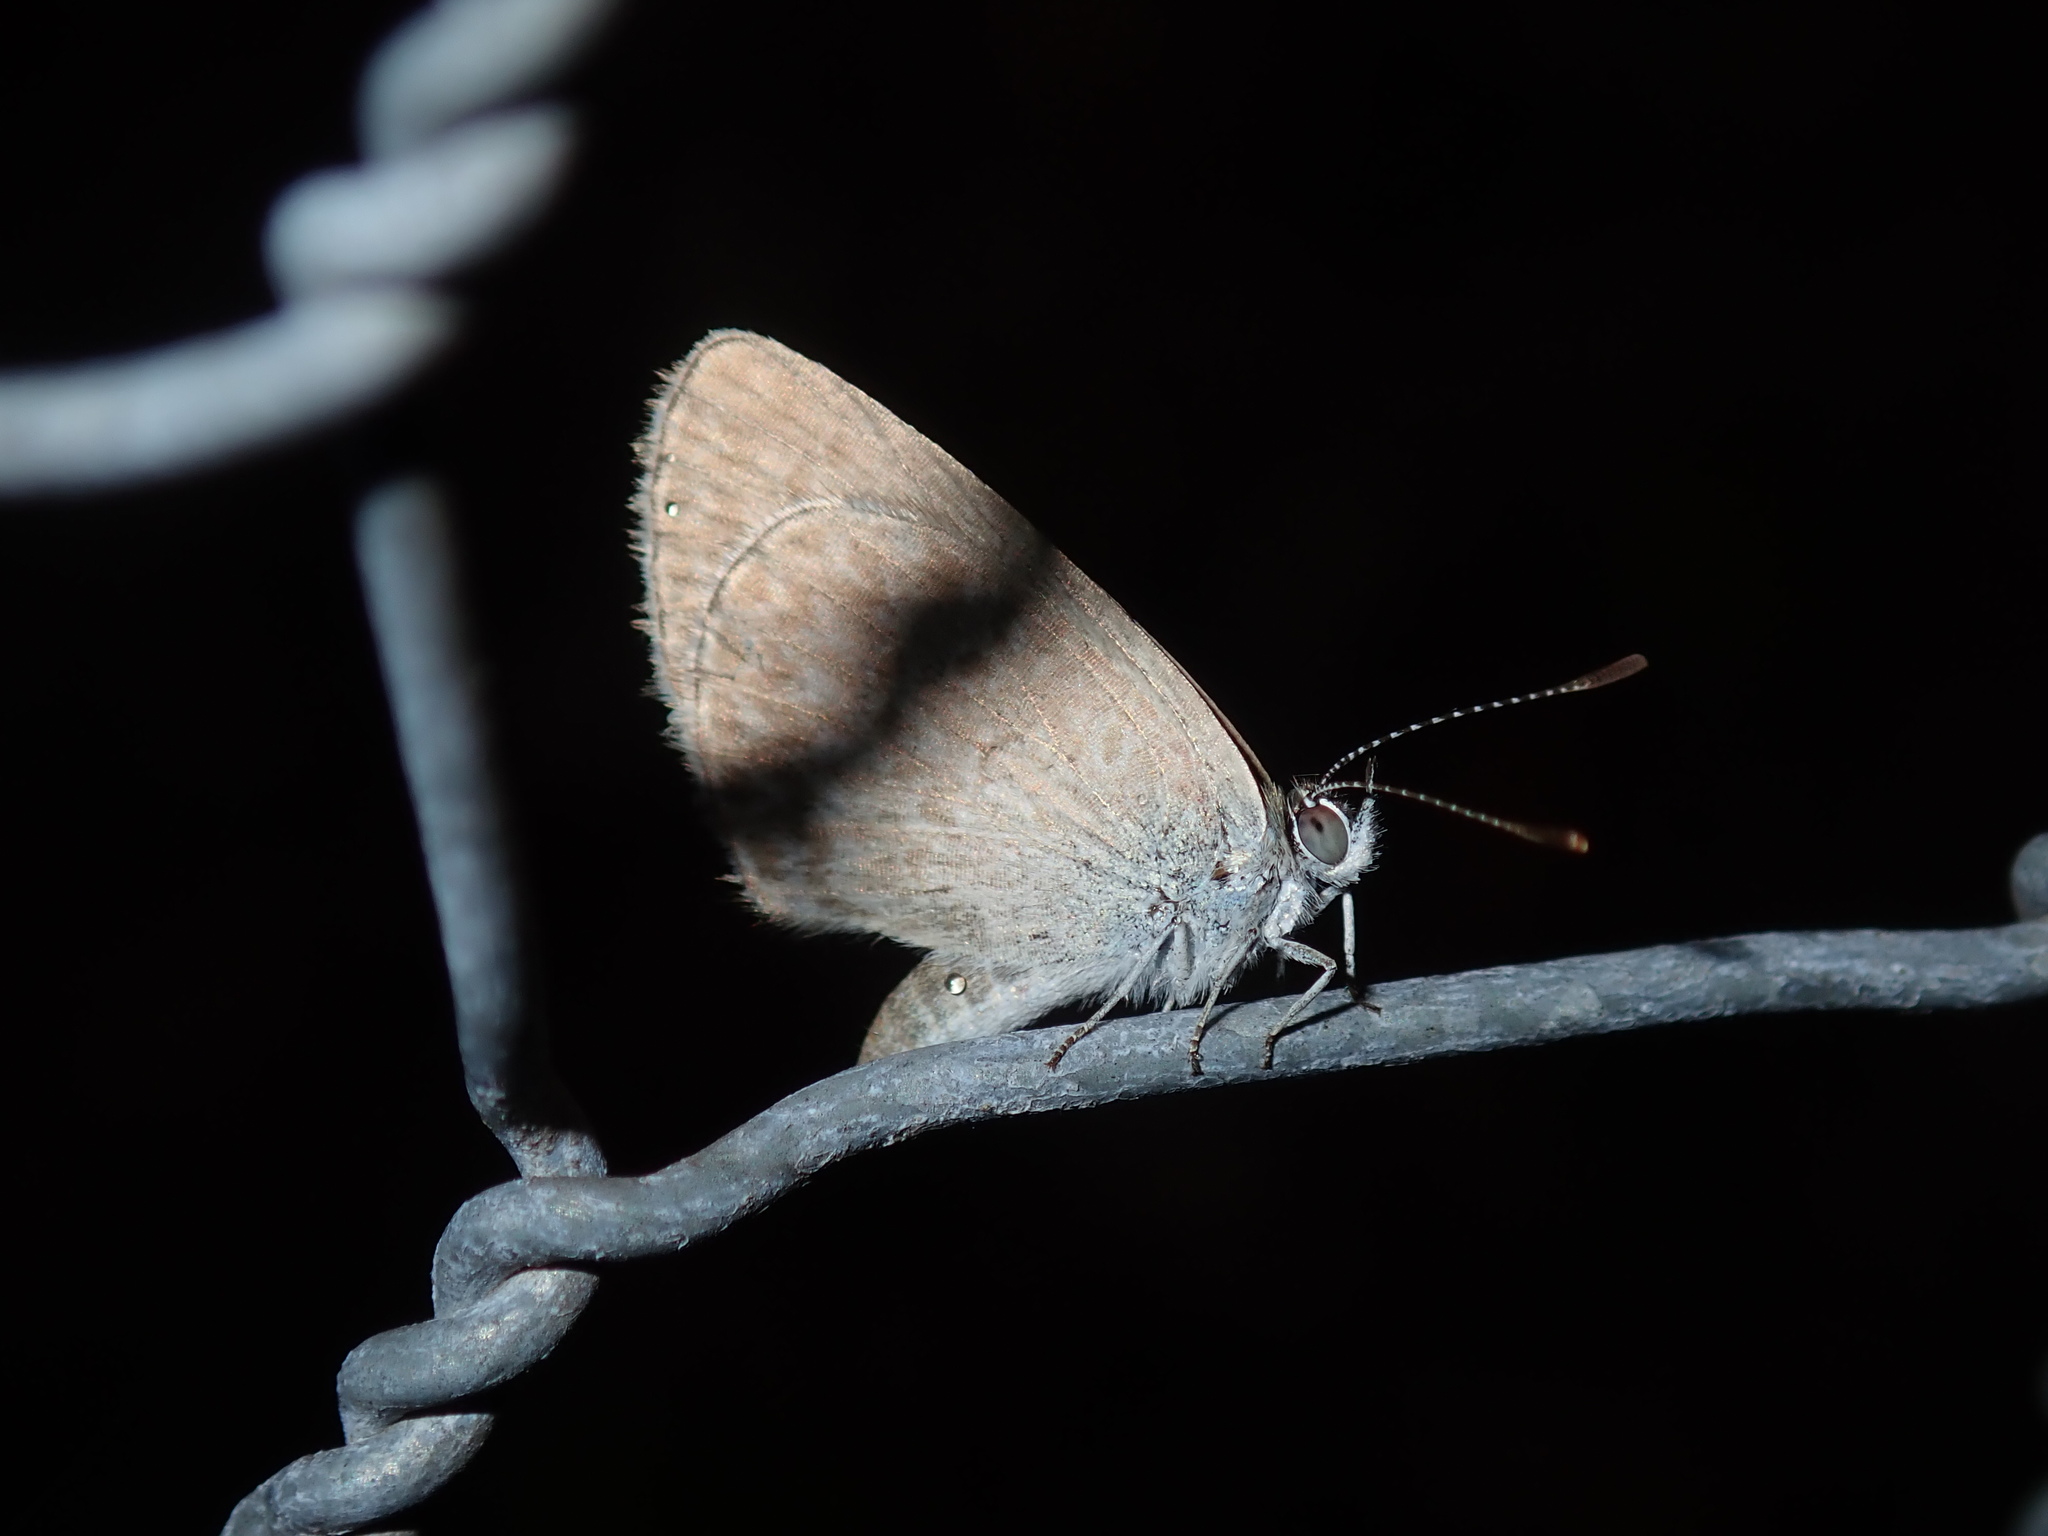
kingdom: Animalia
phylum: Arthropoda
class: Insecta
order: Lepidoptera
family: Lycaenidae
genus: Zizina
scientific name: Zizina labradus
